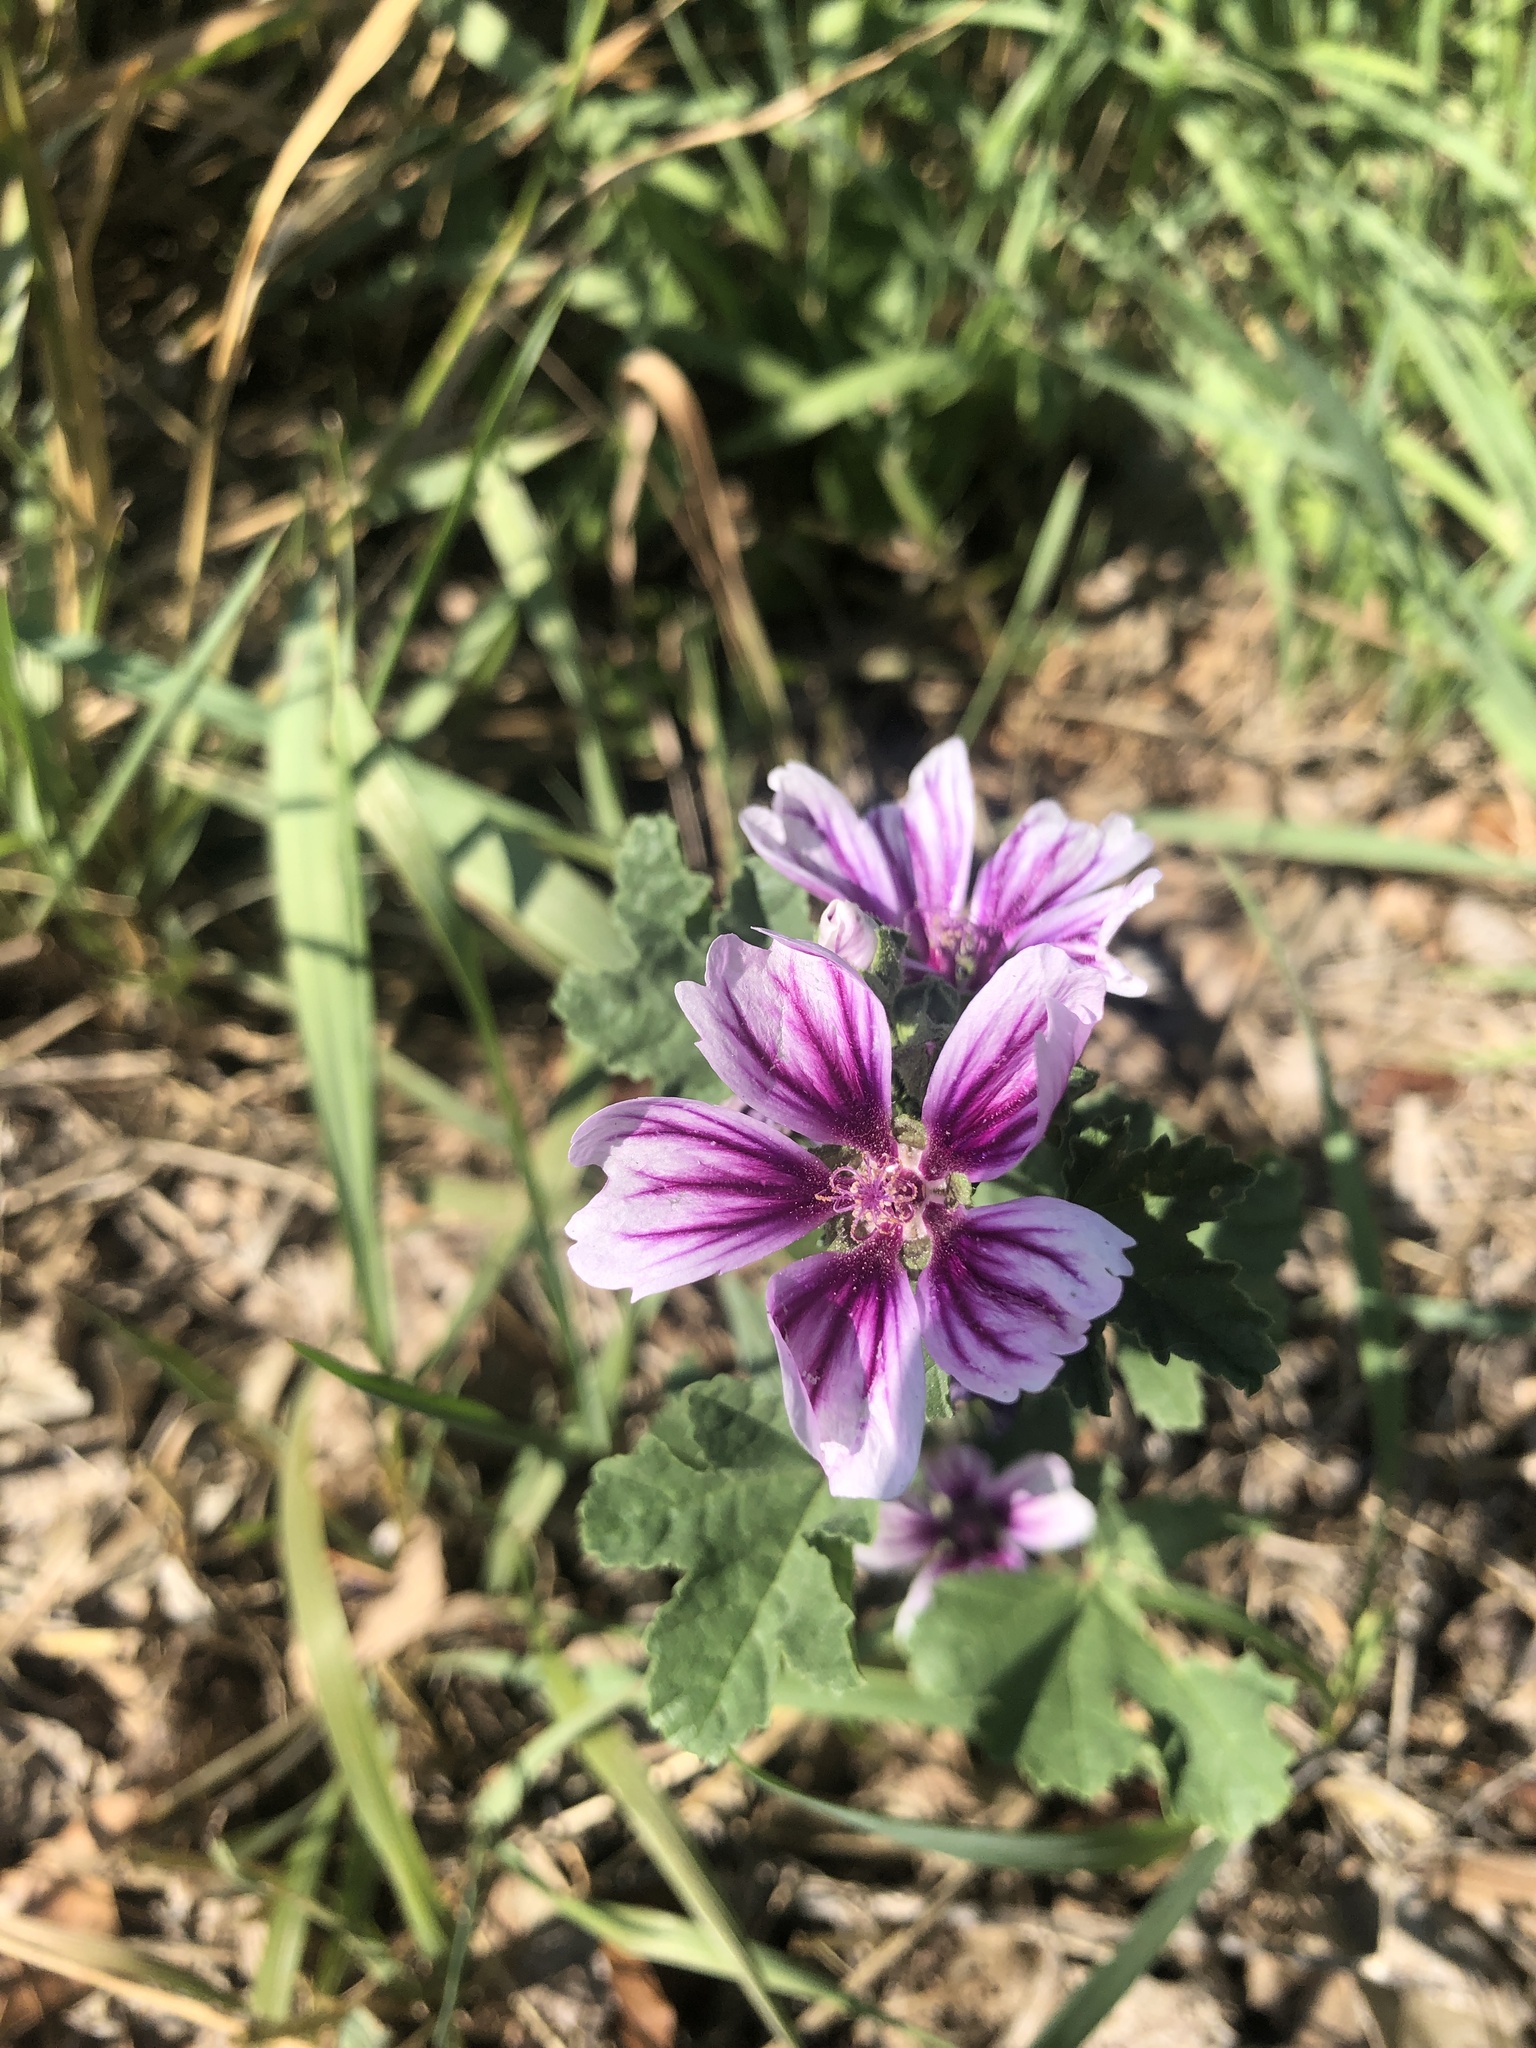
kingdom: Plantae
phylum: Tracheophyta
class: Magnoliopsida
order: Malvales
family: Malvaceae
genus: Malva
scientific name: Malva sylvestris
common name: Common mallow
